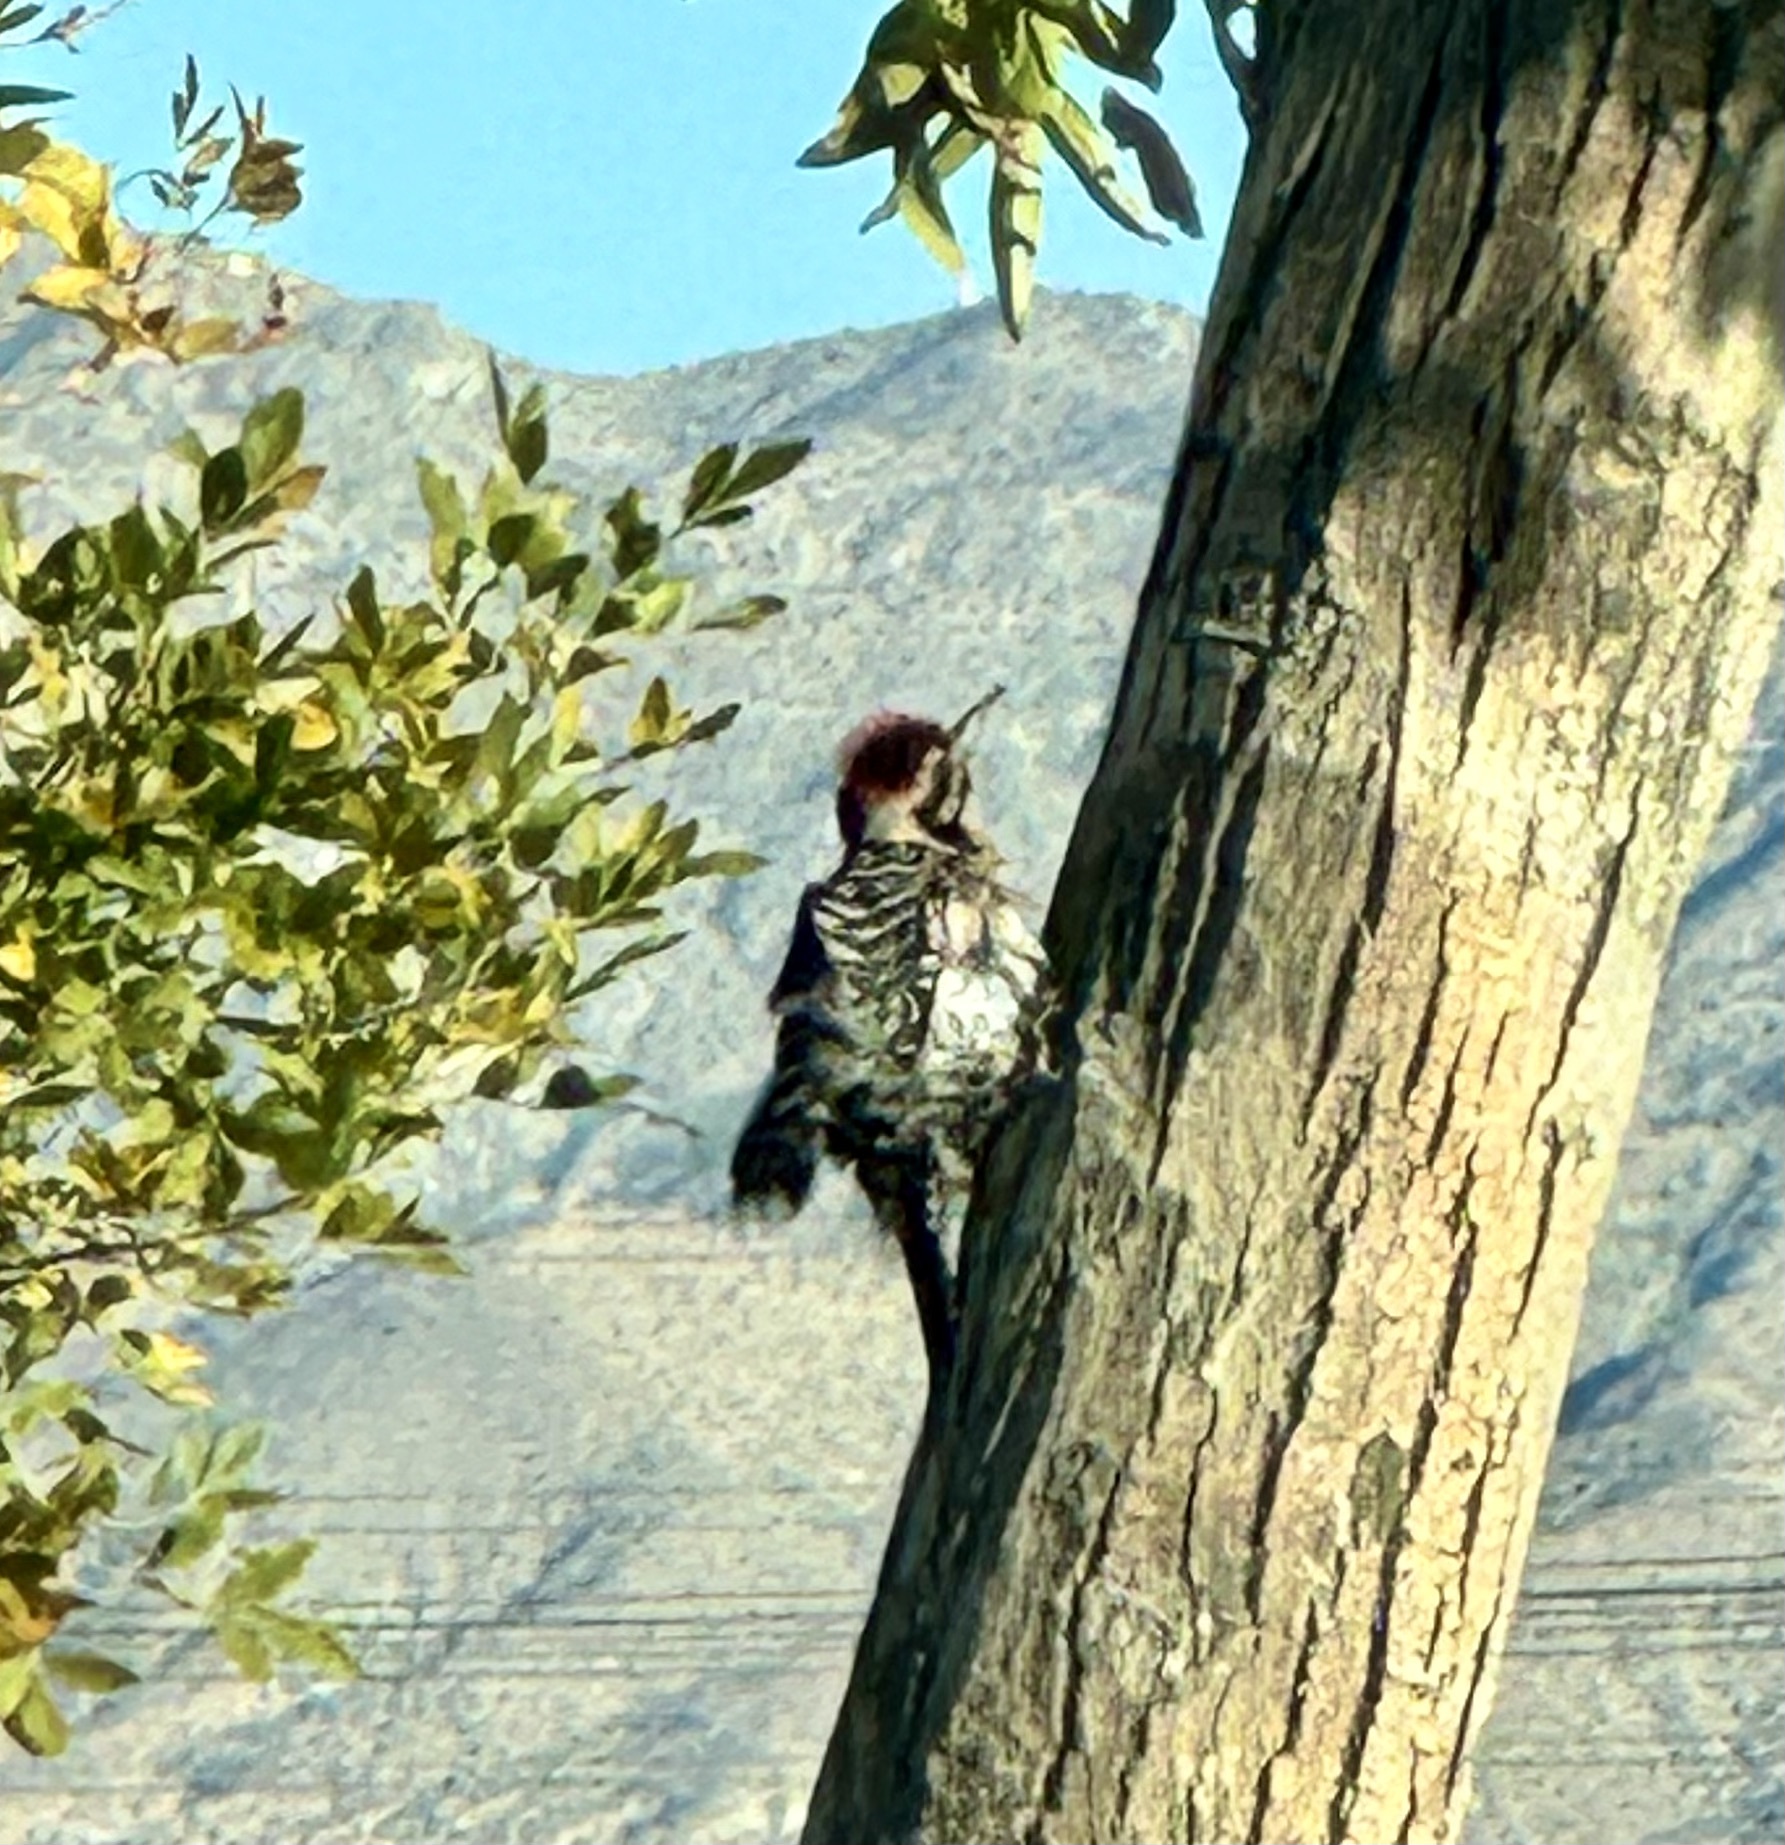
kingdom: Animalia
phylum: Chordata
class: Aves
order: Piciformes
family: Picidae
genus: Dryobates
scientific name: Dryobates scalaris
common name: Ladder-backed woodpecker
